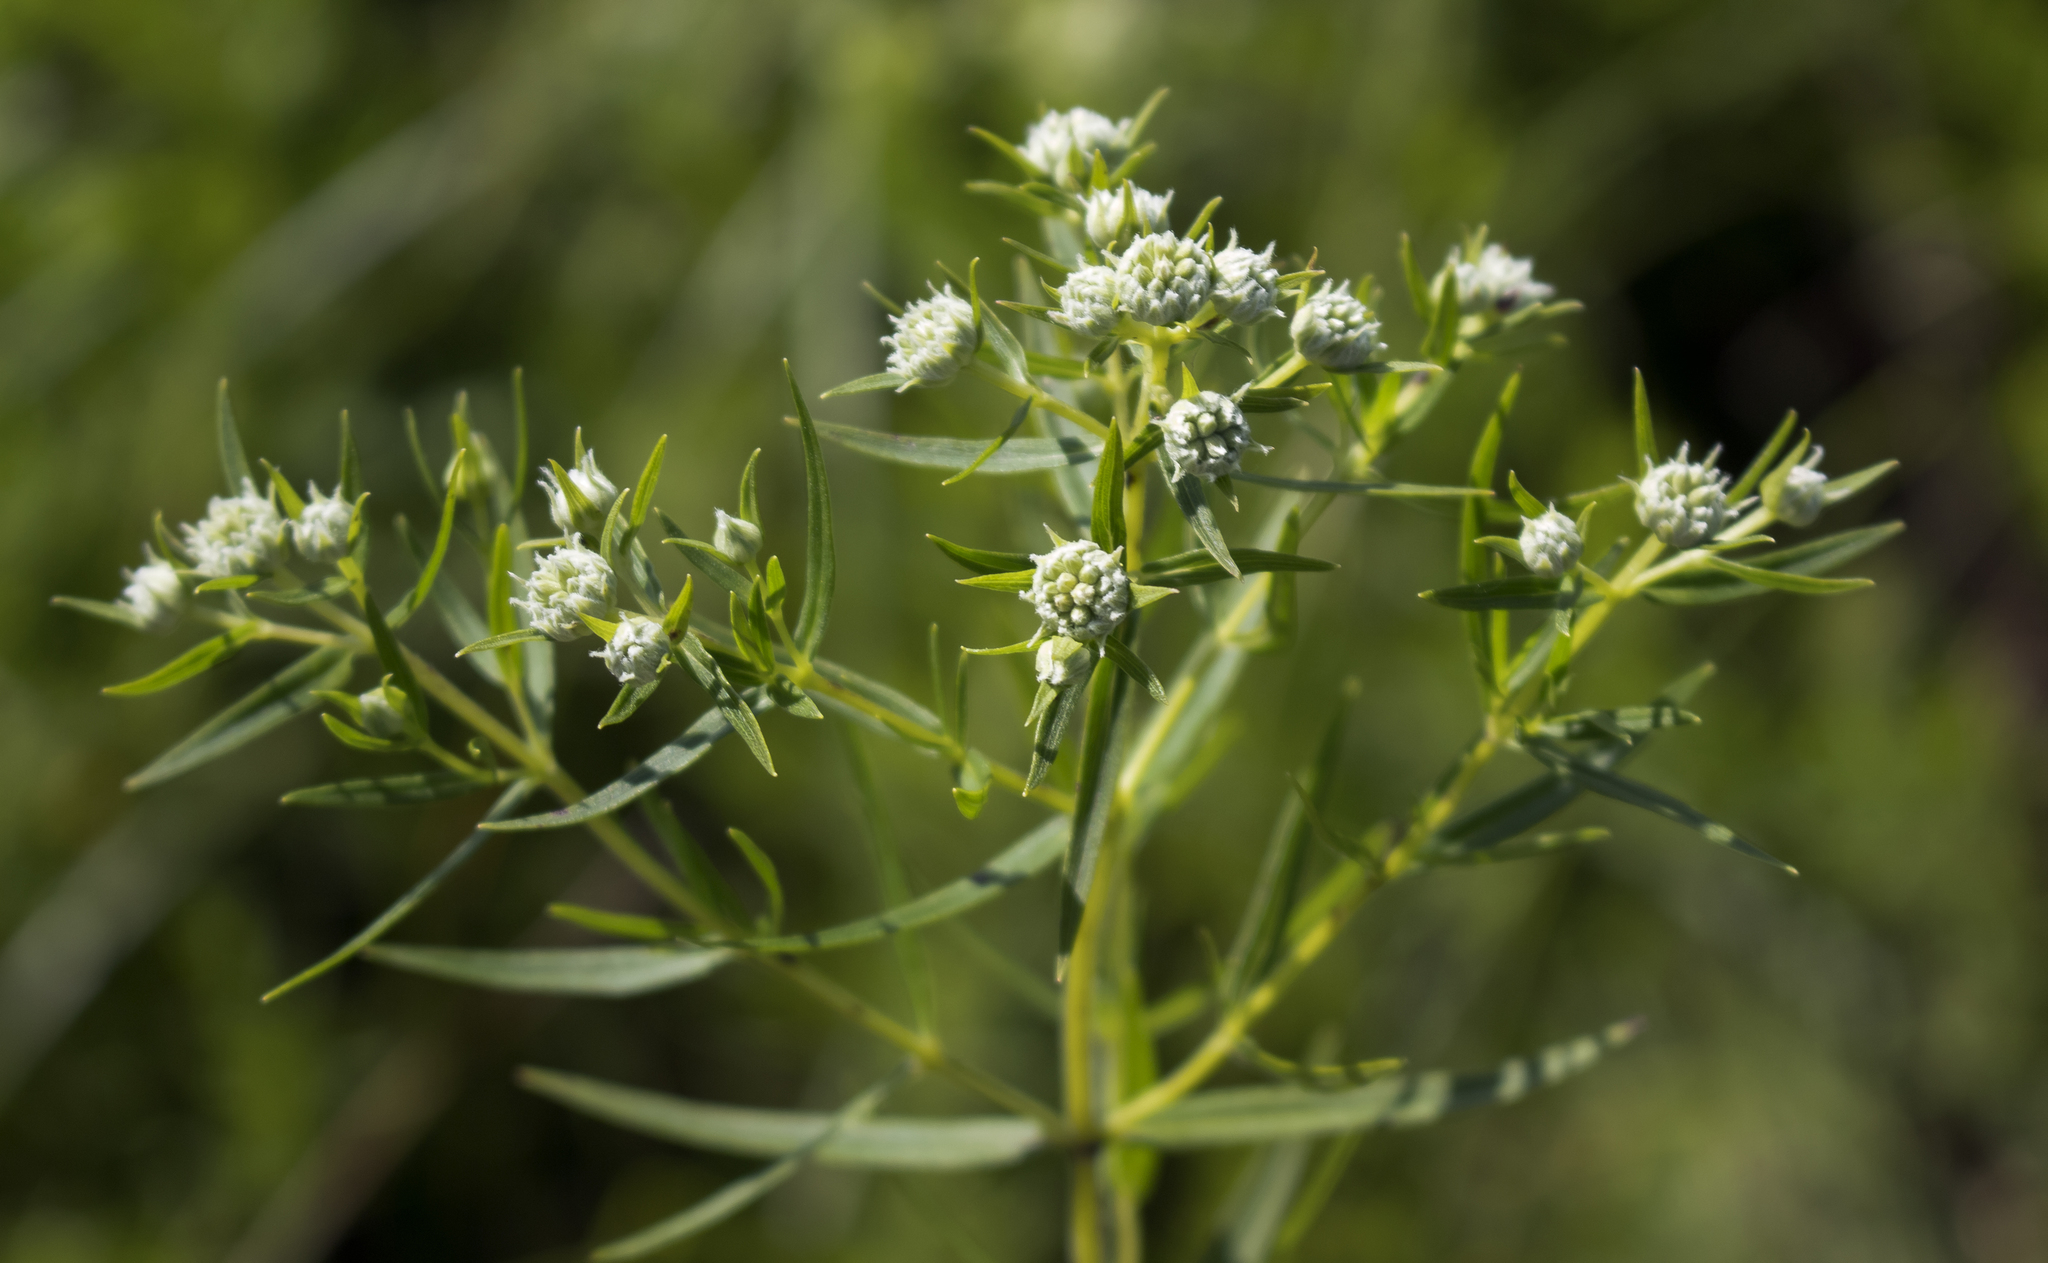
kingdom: Plantae
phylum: Tracheophyta
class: Magnoliopsida
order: Lamiales
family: Lamiaceae
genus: Pycnanthemum
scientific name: Pycnanthemum virginianum
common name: Virginia mountain-mint
